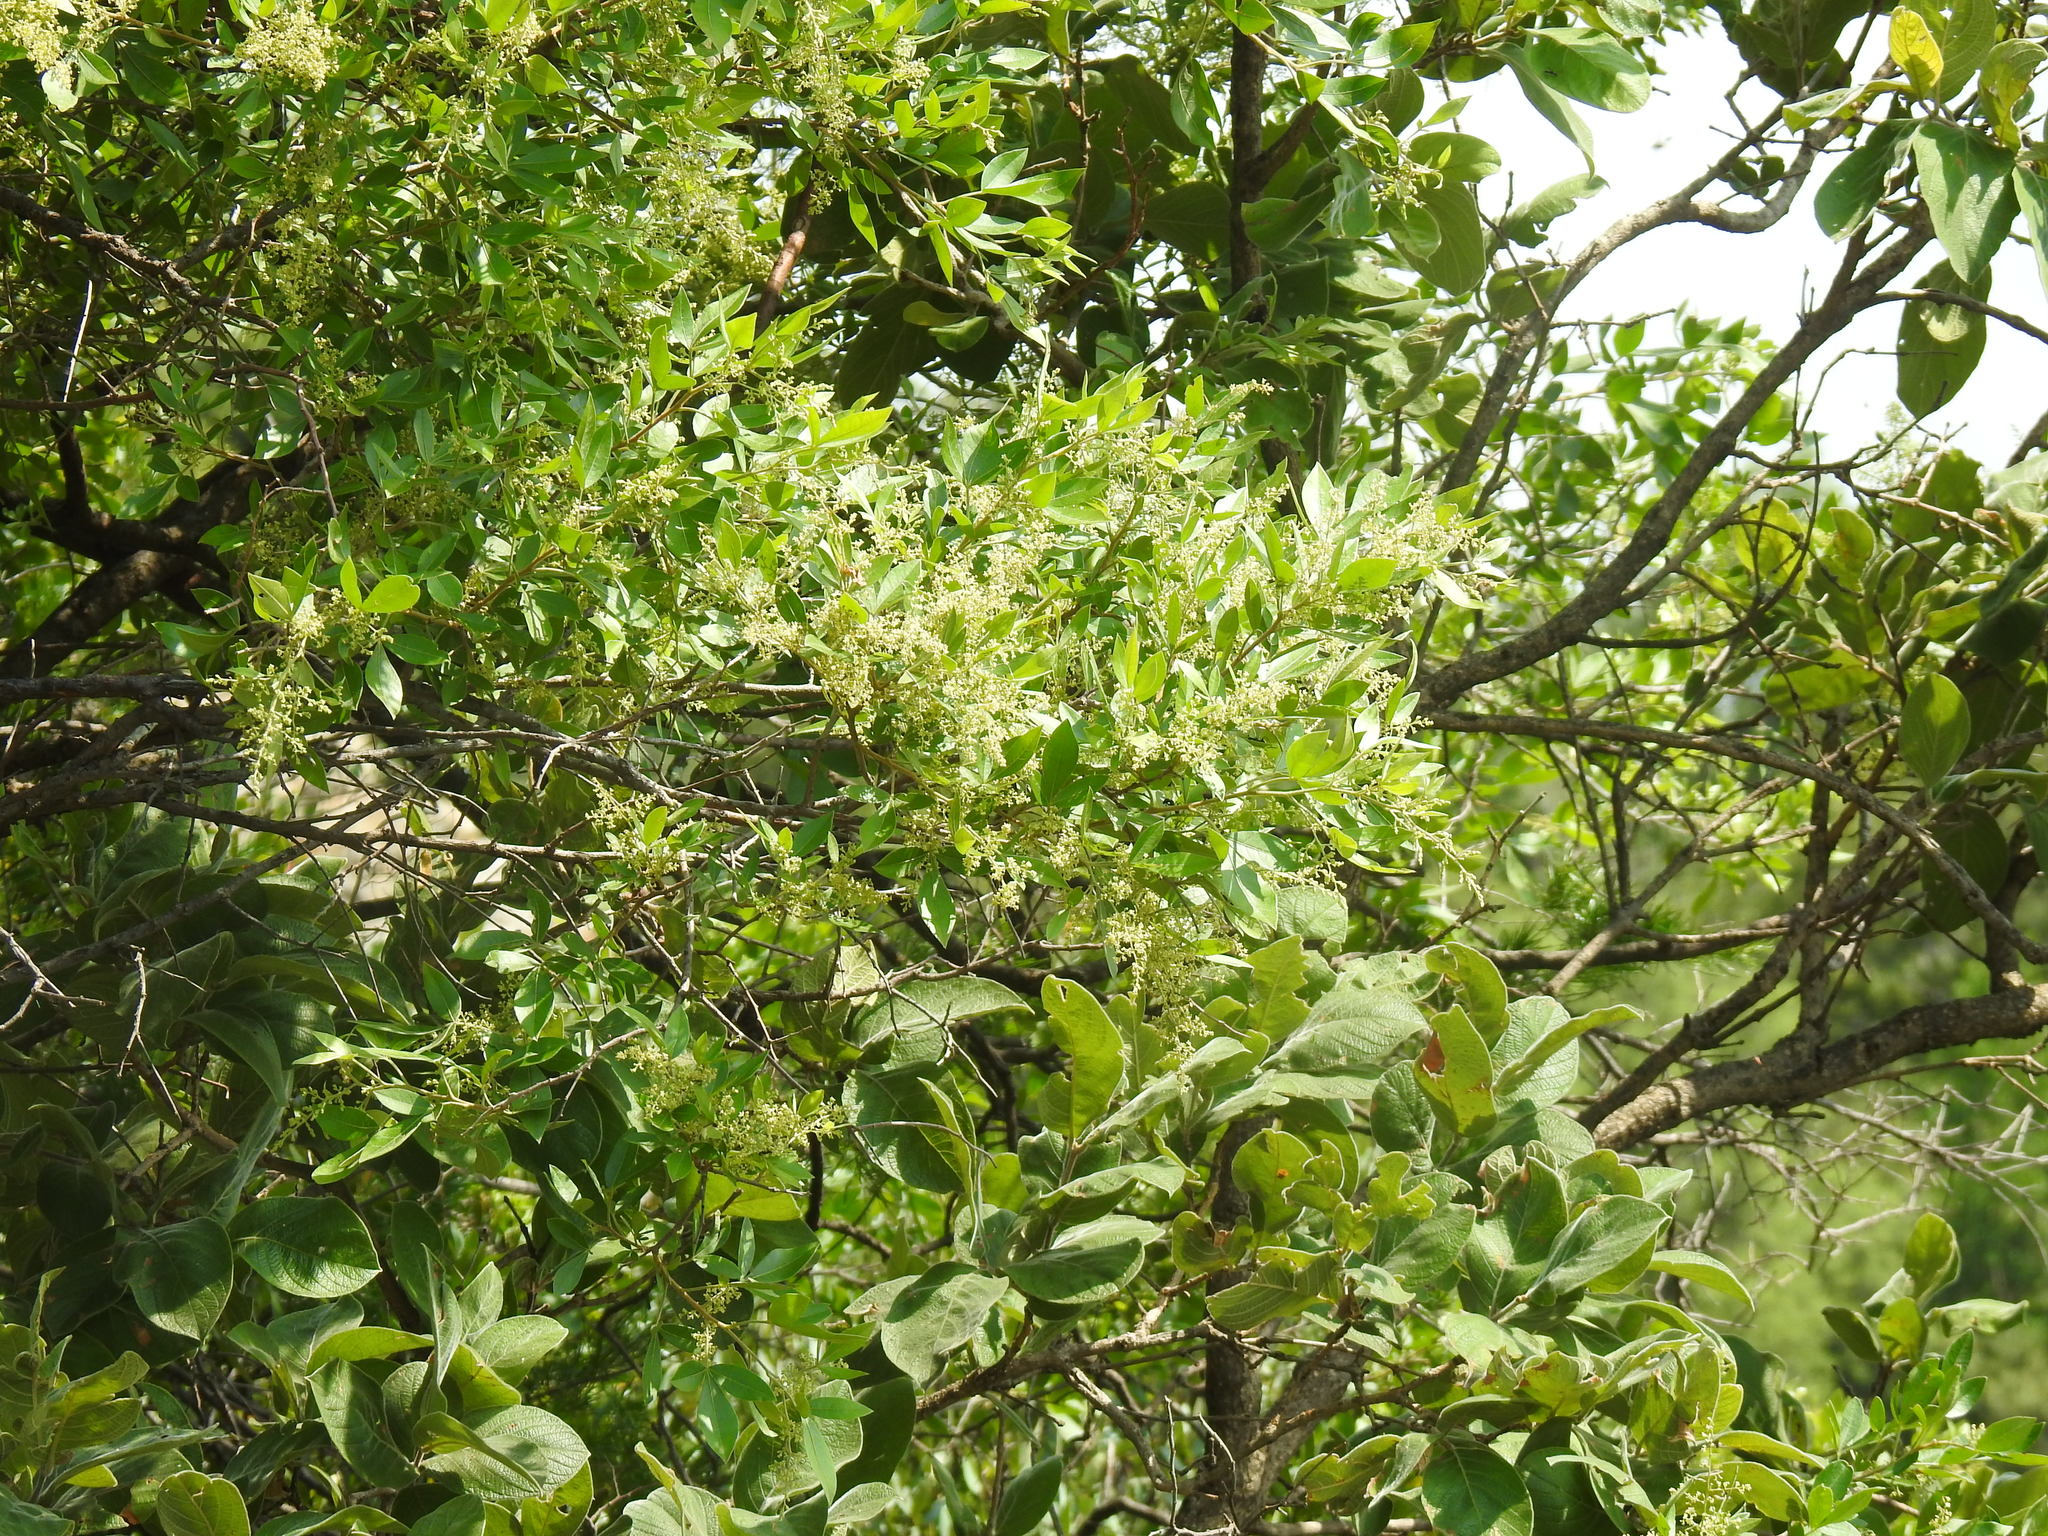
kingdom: Plantae
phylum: Tracheophyta
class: Magnoliopsida
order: Sapindales
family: Anacardiaceae
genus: Searsia
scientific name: Searsia pyroides
